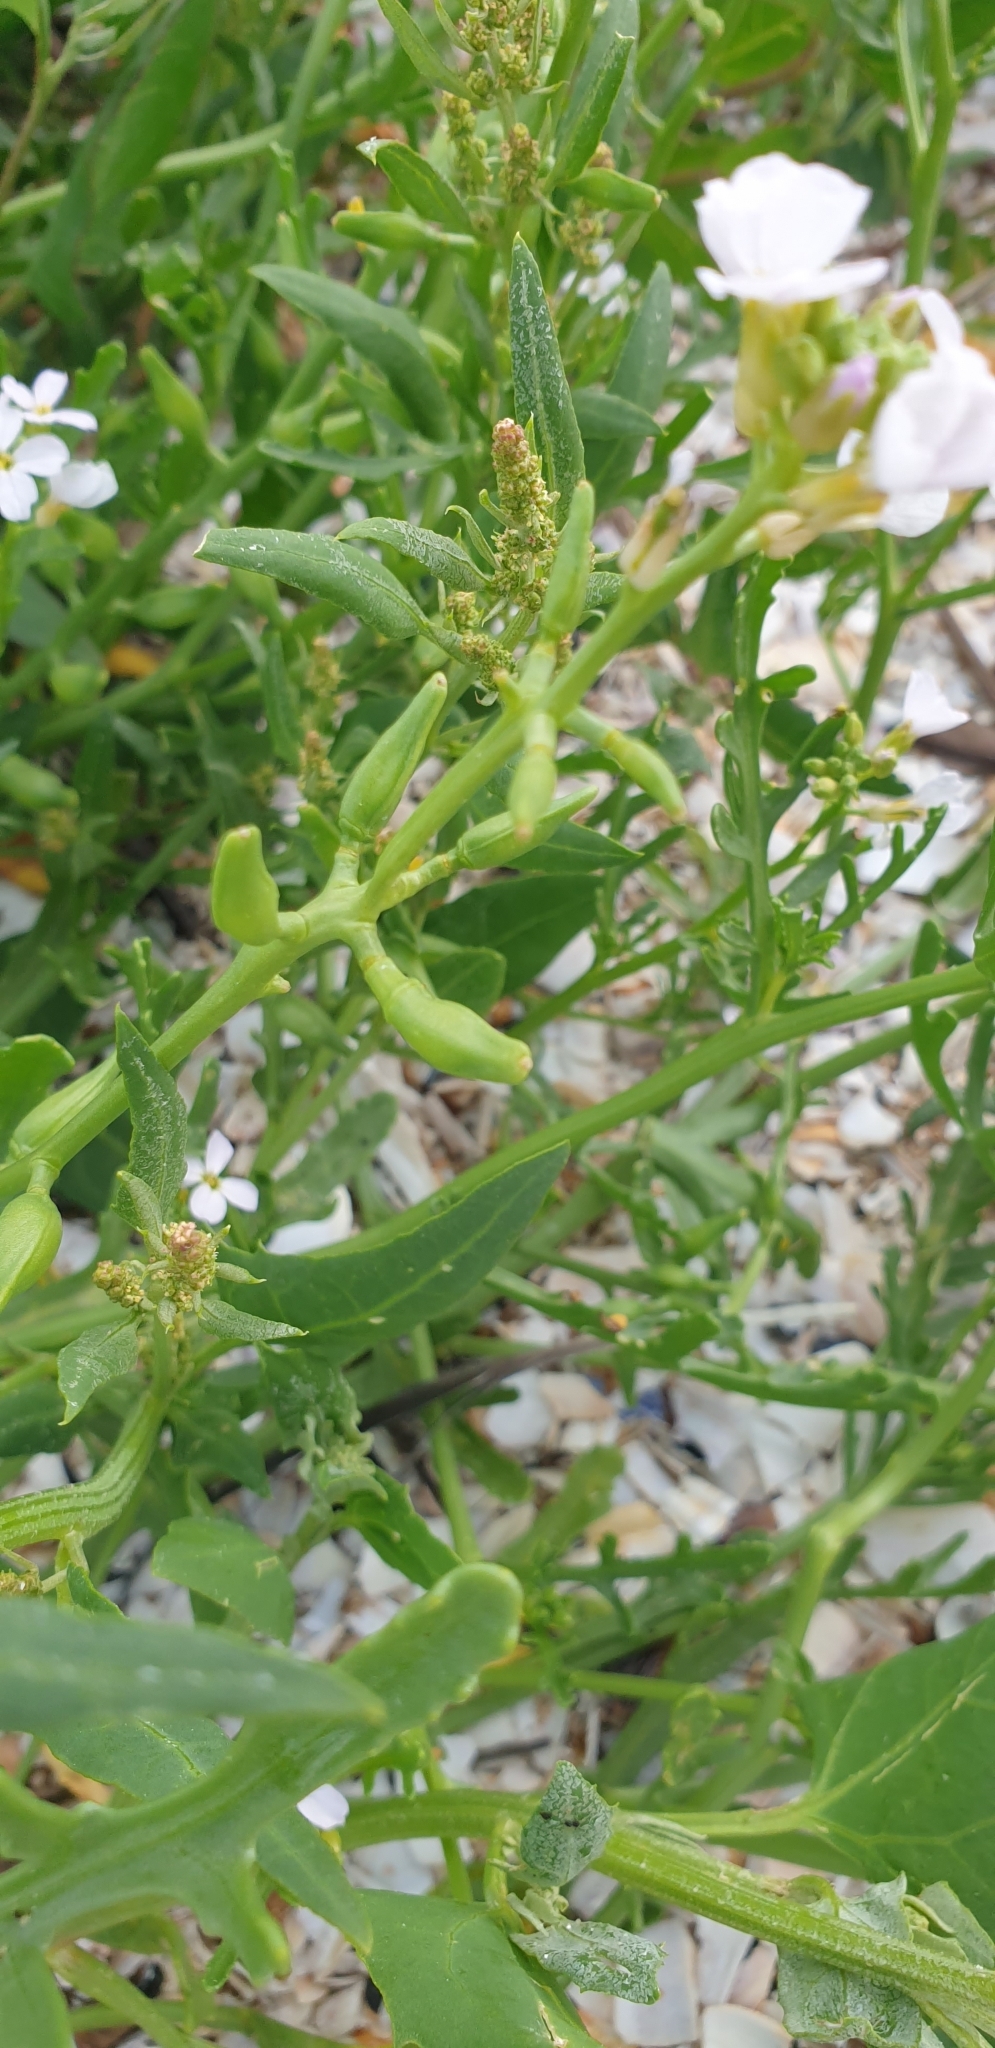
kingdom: Plantae
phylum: Tracheophyta
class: Magnoliopsida
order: Brassicales
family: Brassicaceae
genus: Cakile
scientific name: Cakile maritima
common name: Sea rocket
